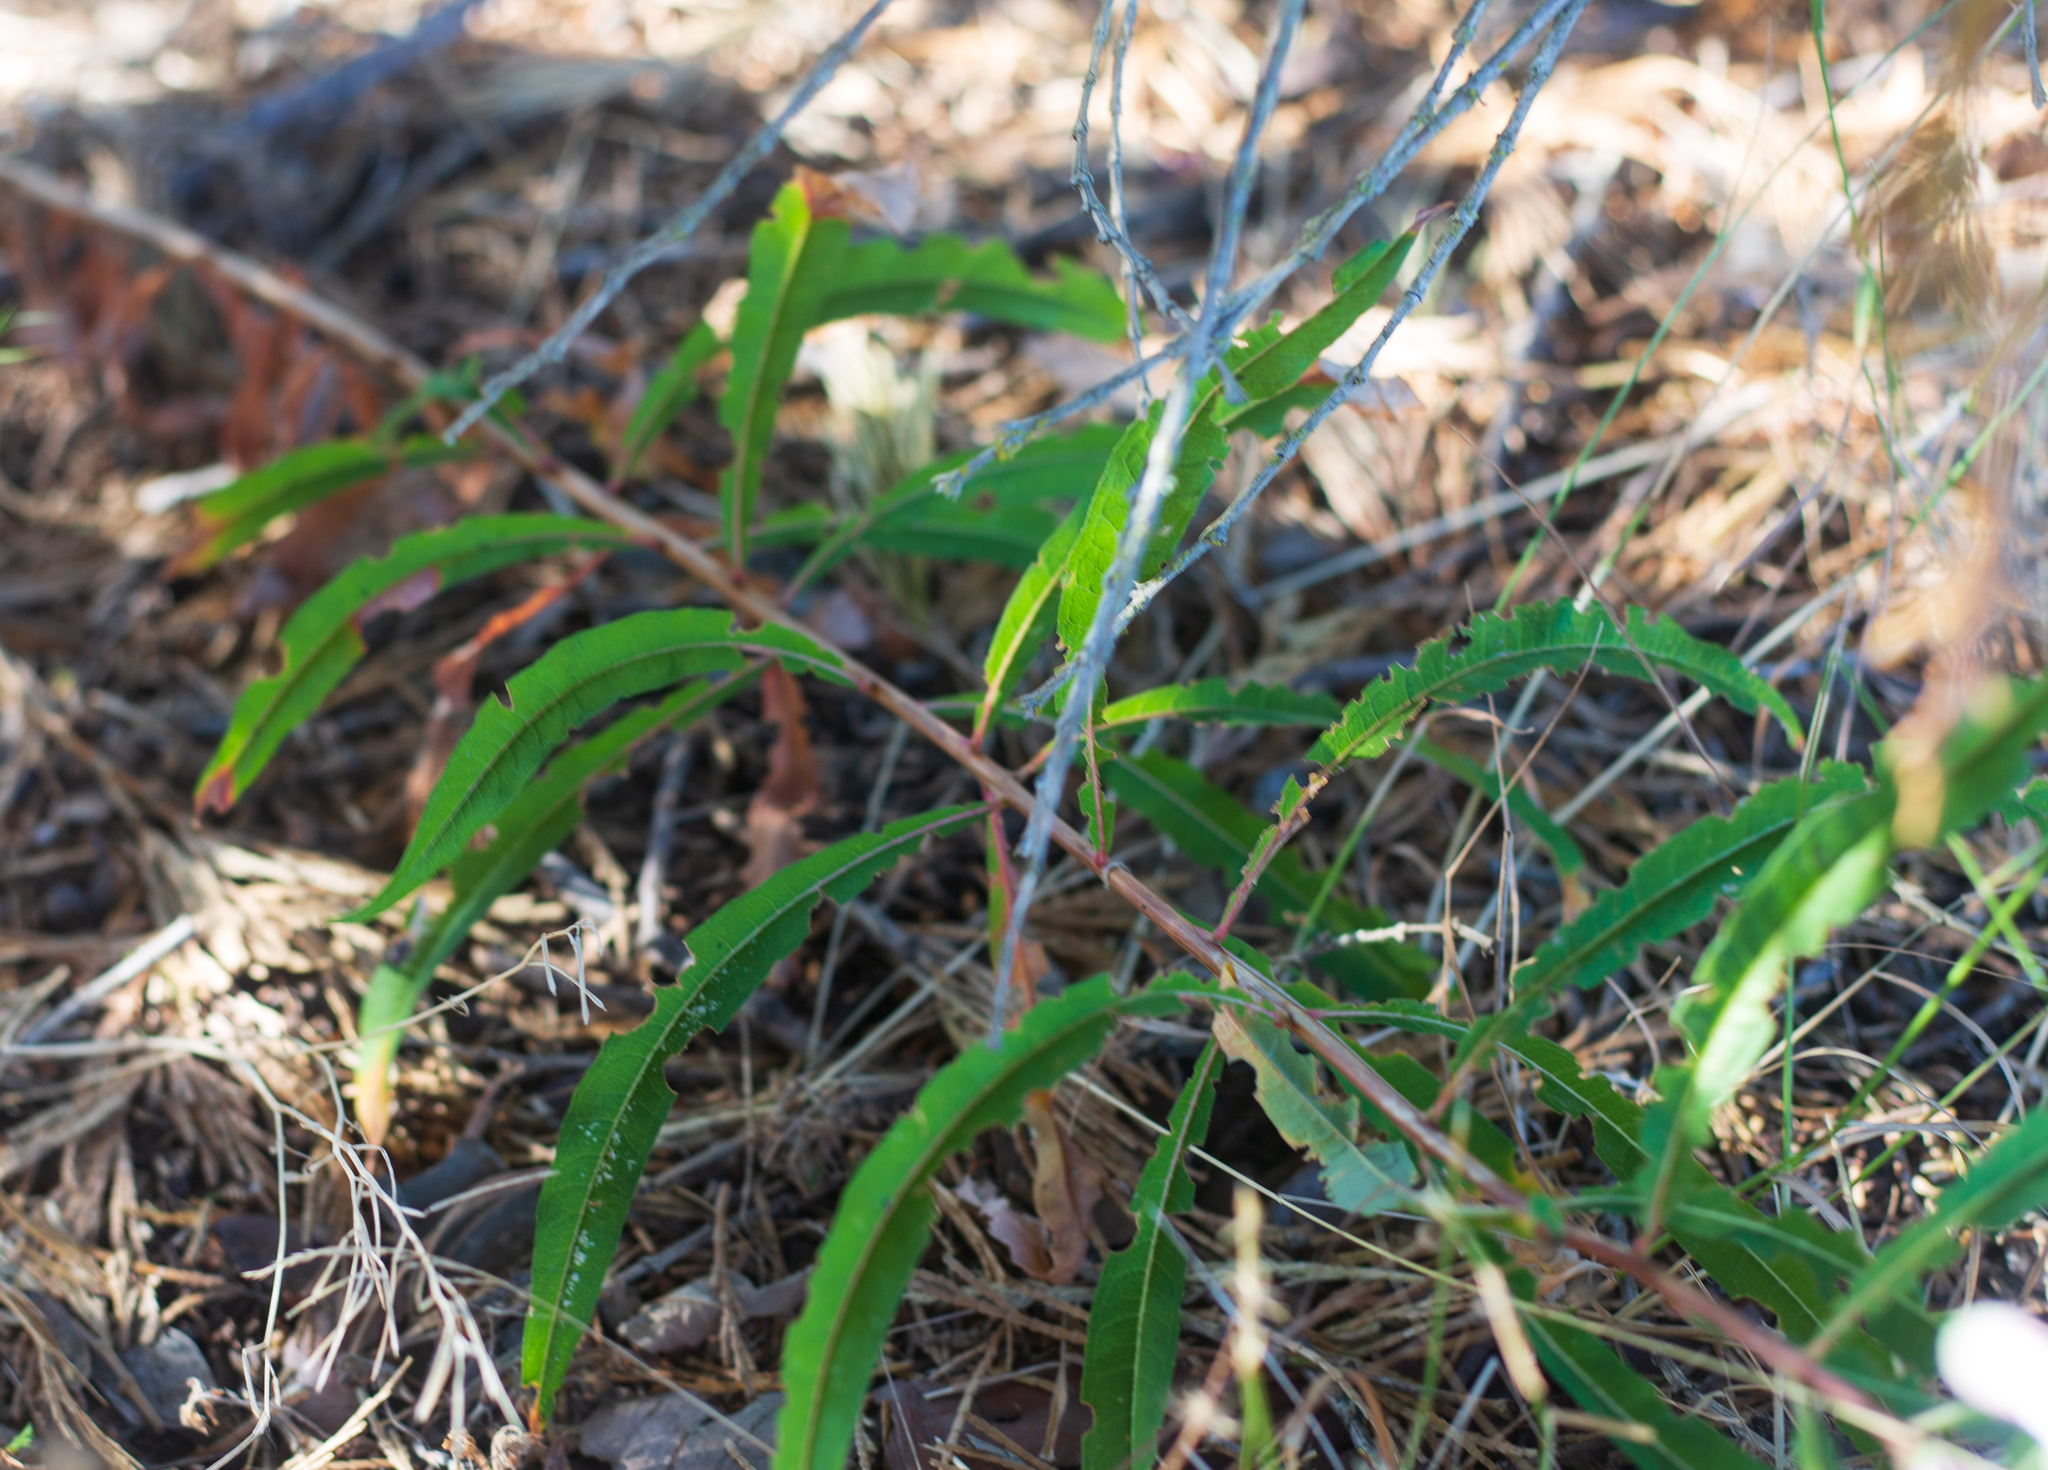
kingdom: Plantae
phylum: Tracheophyta
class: Magnoliopsida
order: Myrtales
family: Onagraceae
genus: Chamaenerion
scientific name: Chamaenerion angustifolium
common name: Fireweed
